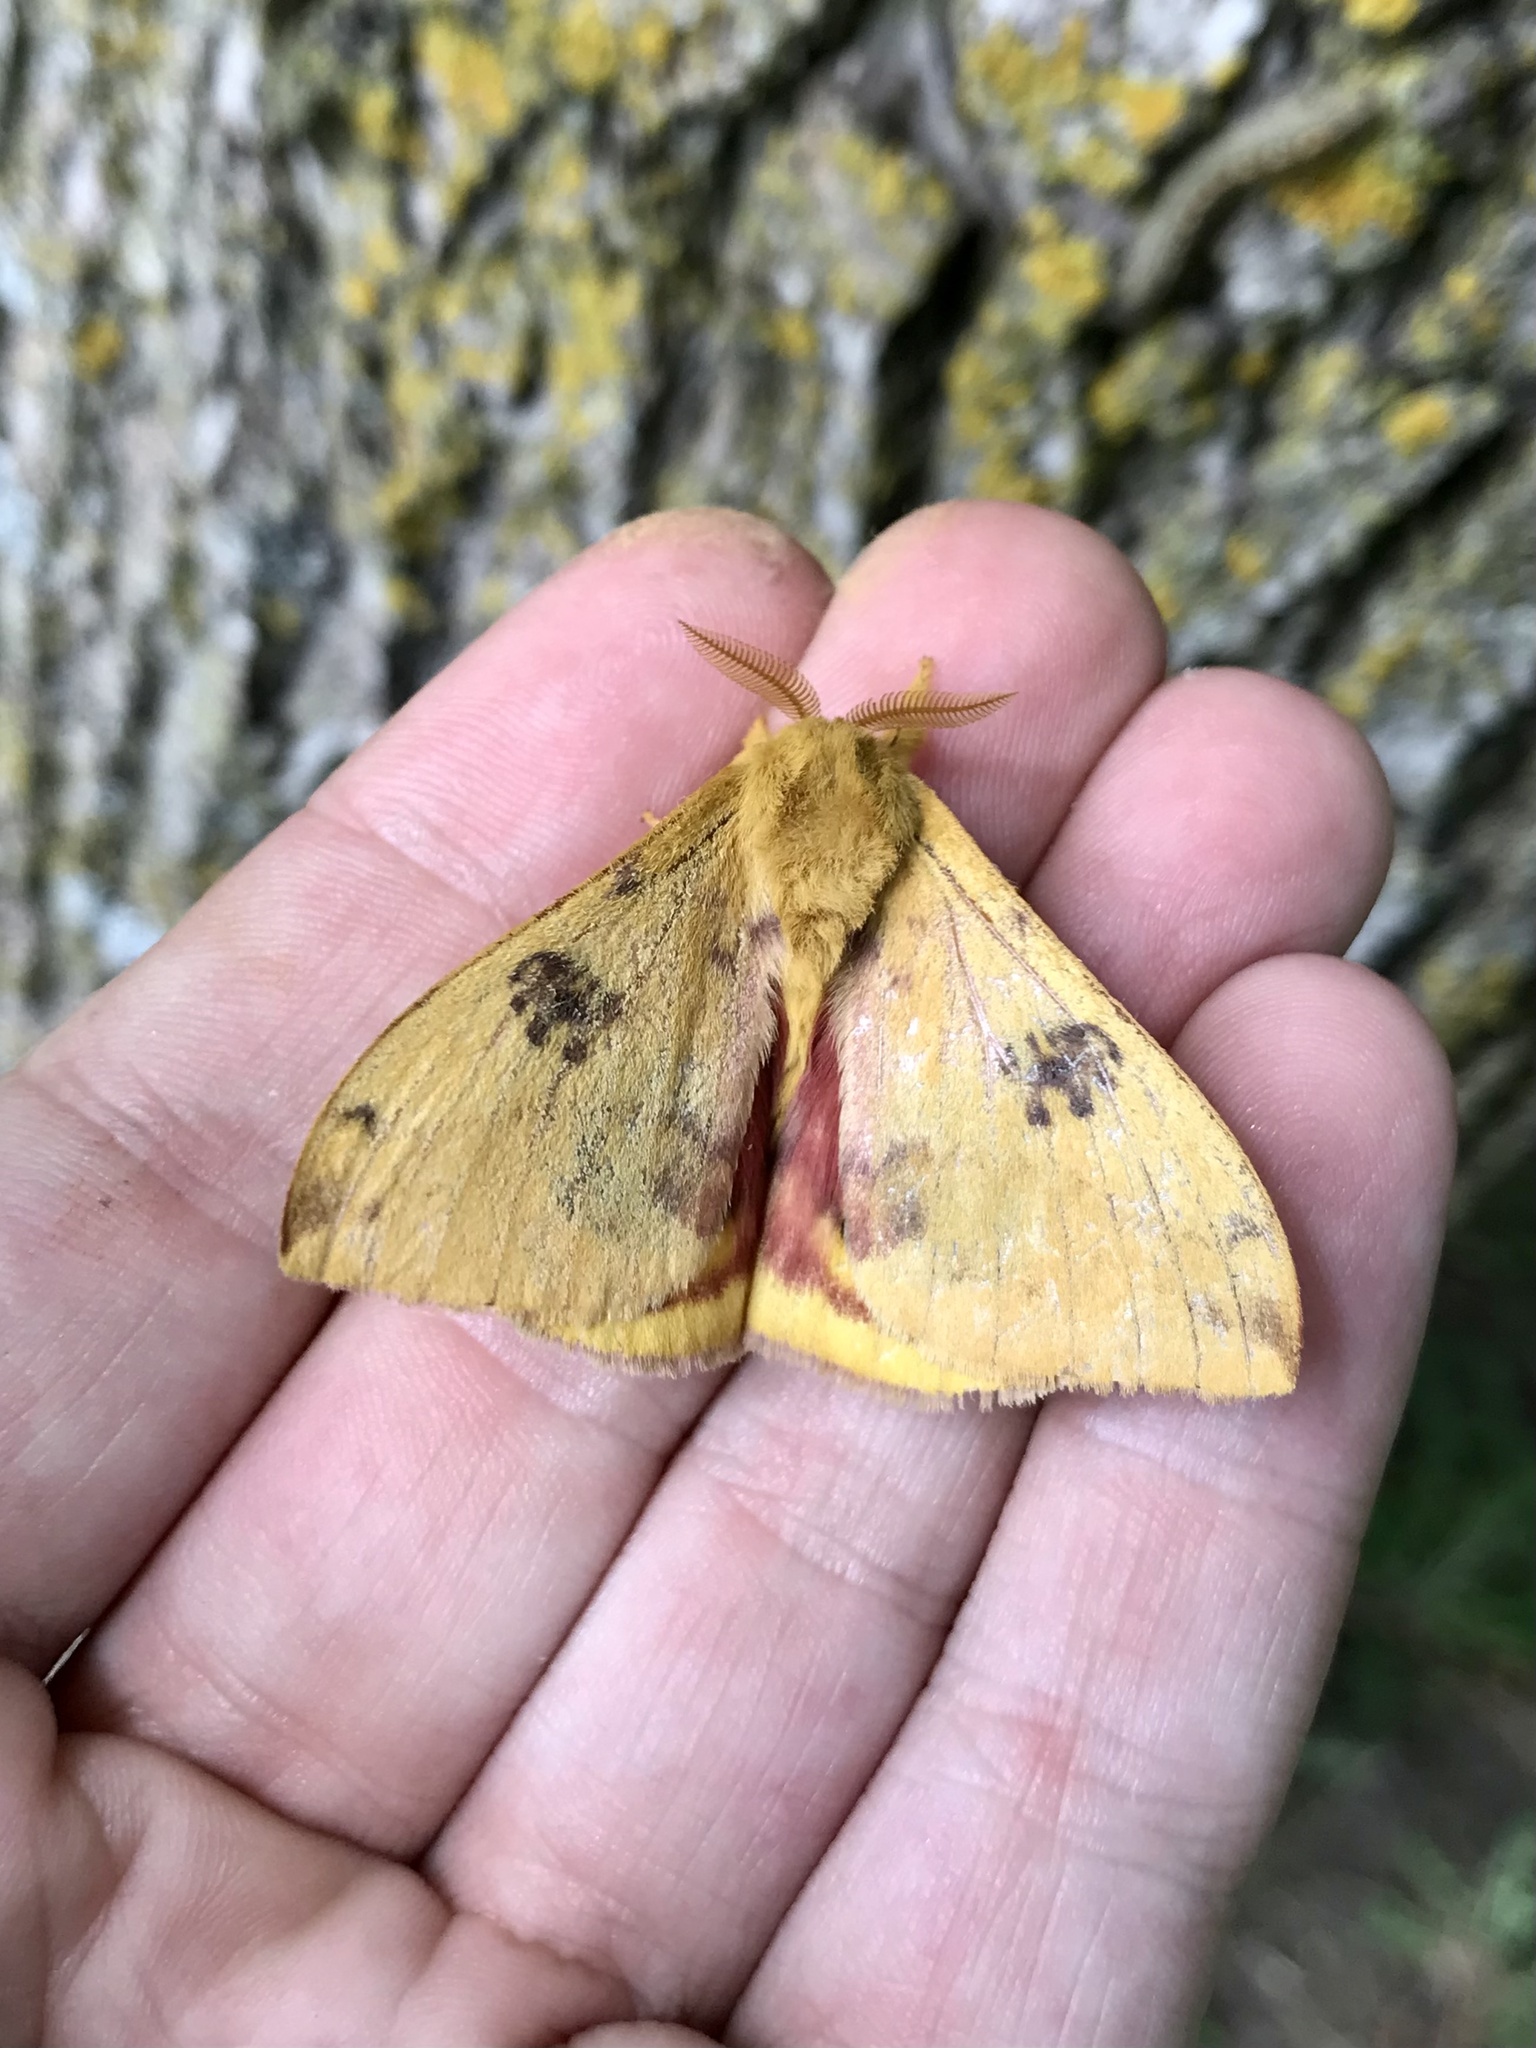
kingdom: Animalia
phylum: Arthropoda
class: Insecta
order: Lepidoptera
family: Saturniidae
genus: Automeris
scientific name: Automeris io
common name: Io moth
